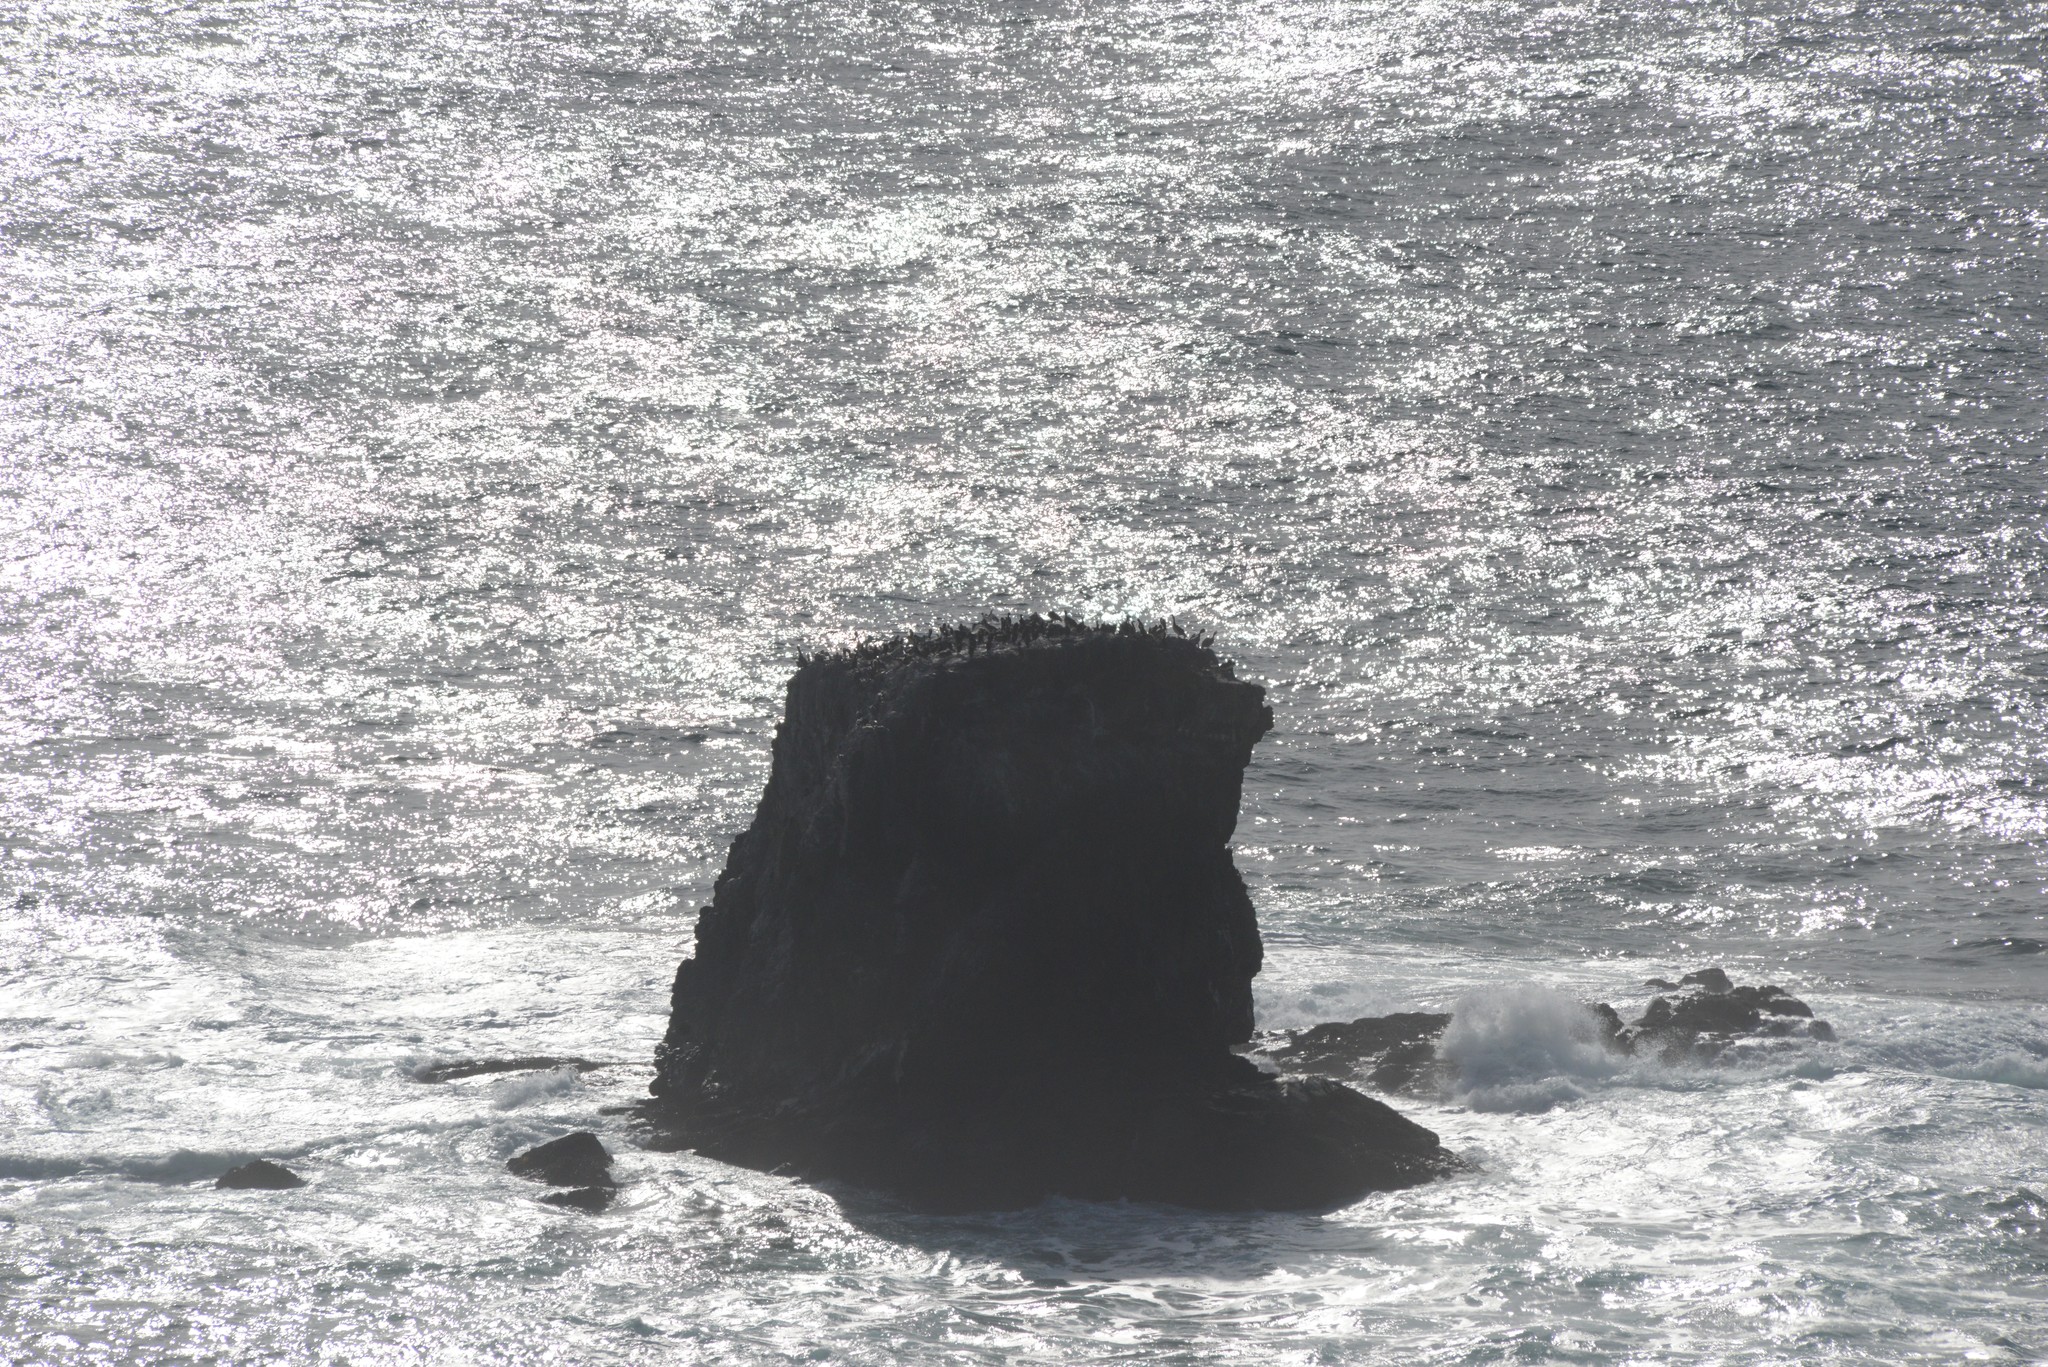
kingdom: Animalia
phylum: Chordata
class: Aves
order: Pelecaniformes
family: Pelecanidae
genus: Pelecanus
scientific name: Pelecanus occidentalis
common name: Brown pelican
